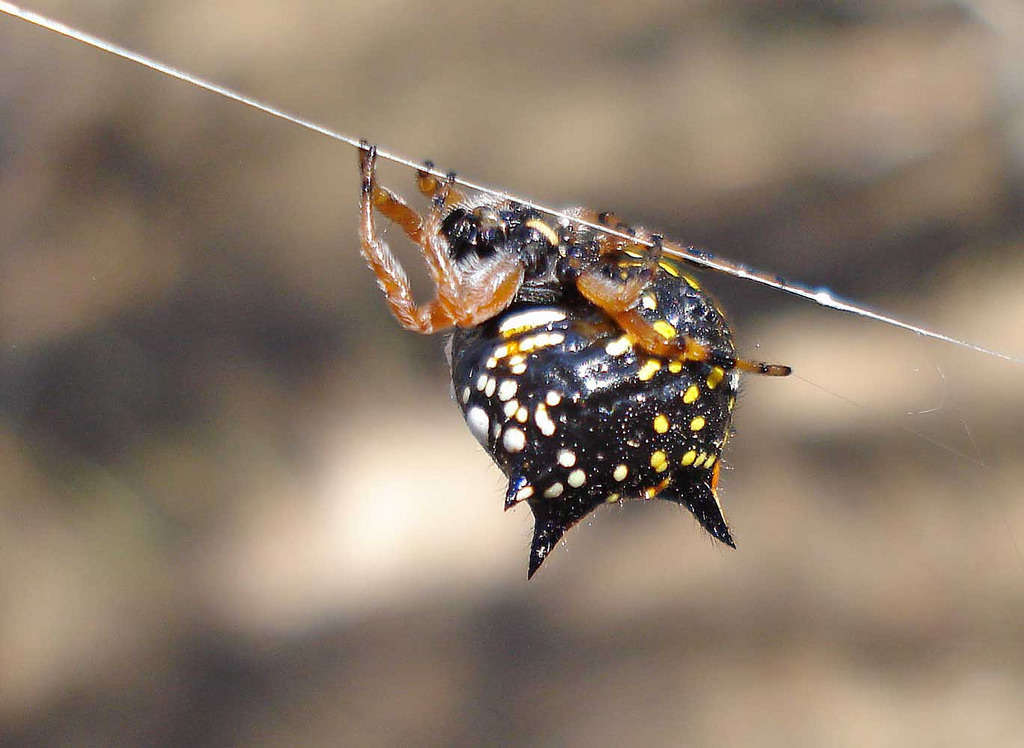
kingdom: Animalia
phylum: Arthropoda
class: Arachnida
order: Araneae
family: Araneidae
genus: Austracantha
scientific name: Austracantha minax
